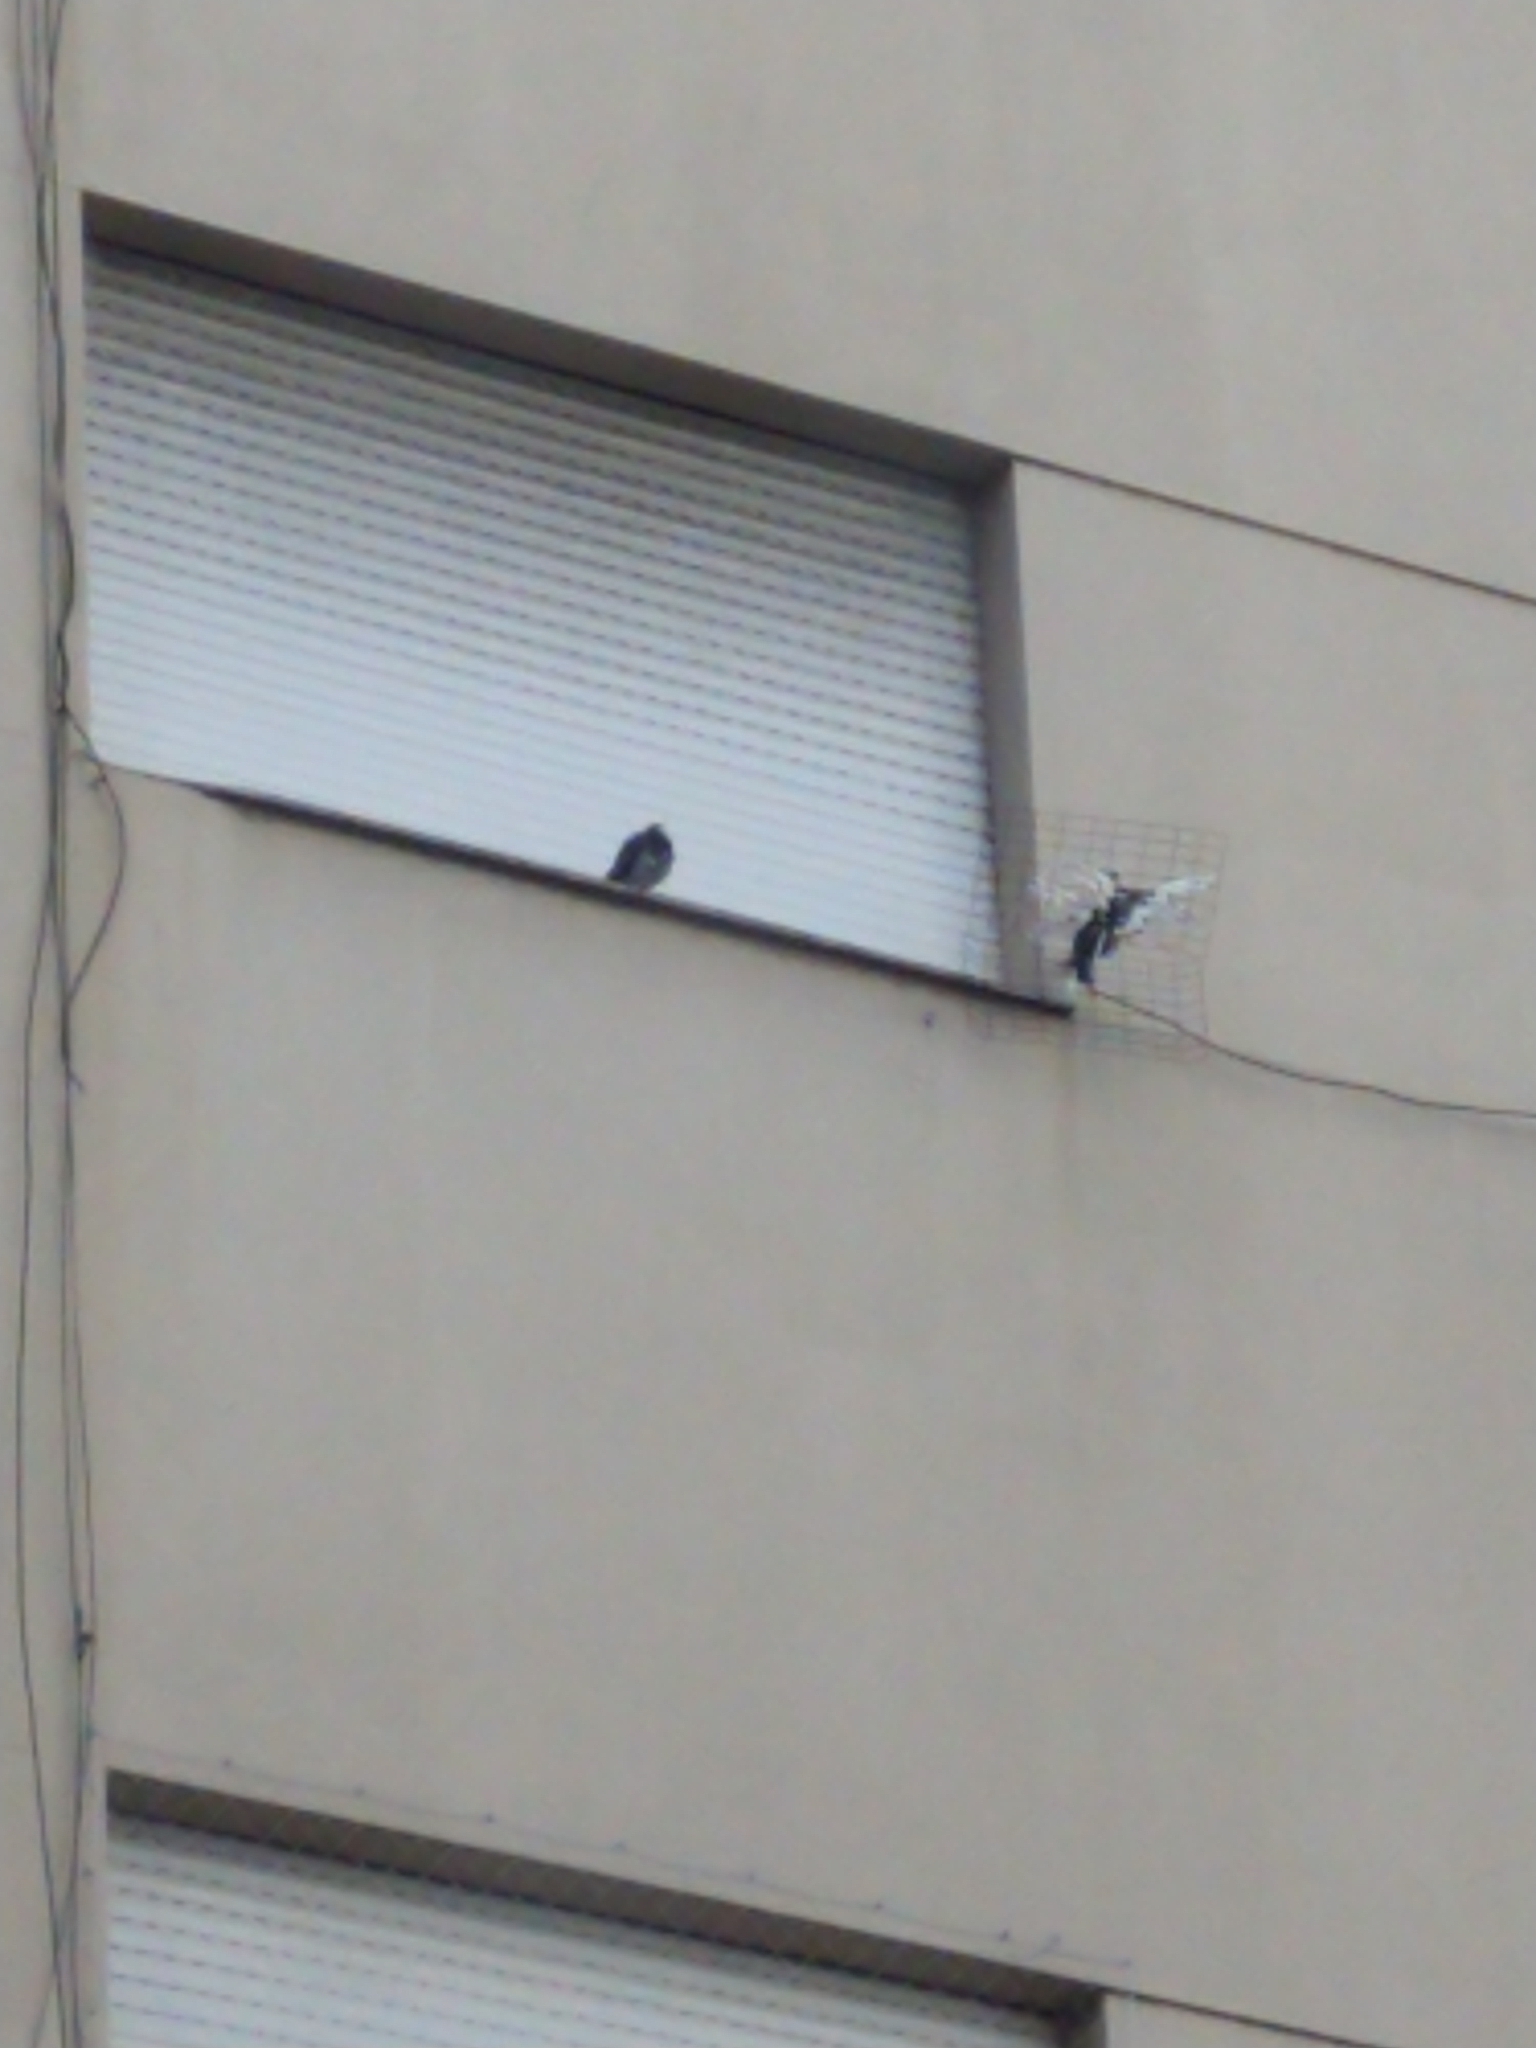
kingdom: Animalia
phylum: Chordata
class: Aves
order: Columbiformes
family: Columbidae
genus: Columba
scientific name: Columba livia
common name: Rock pigeon
